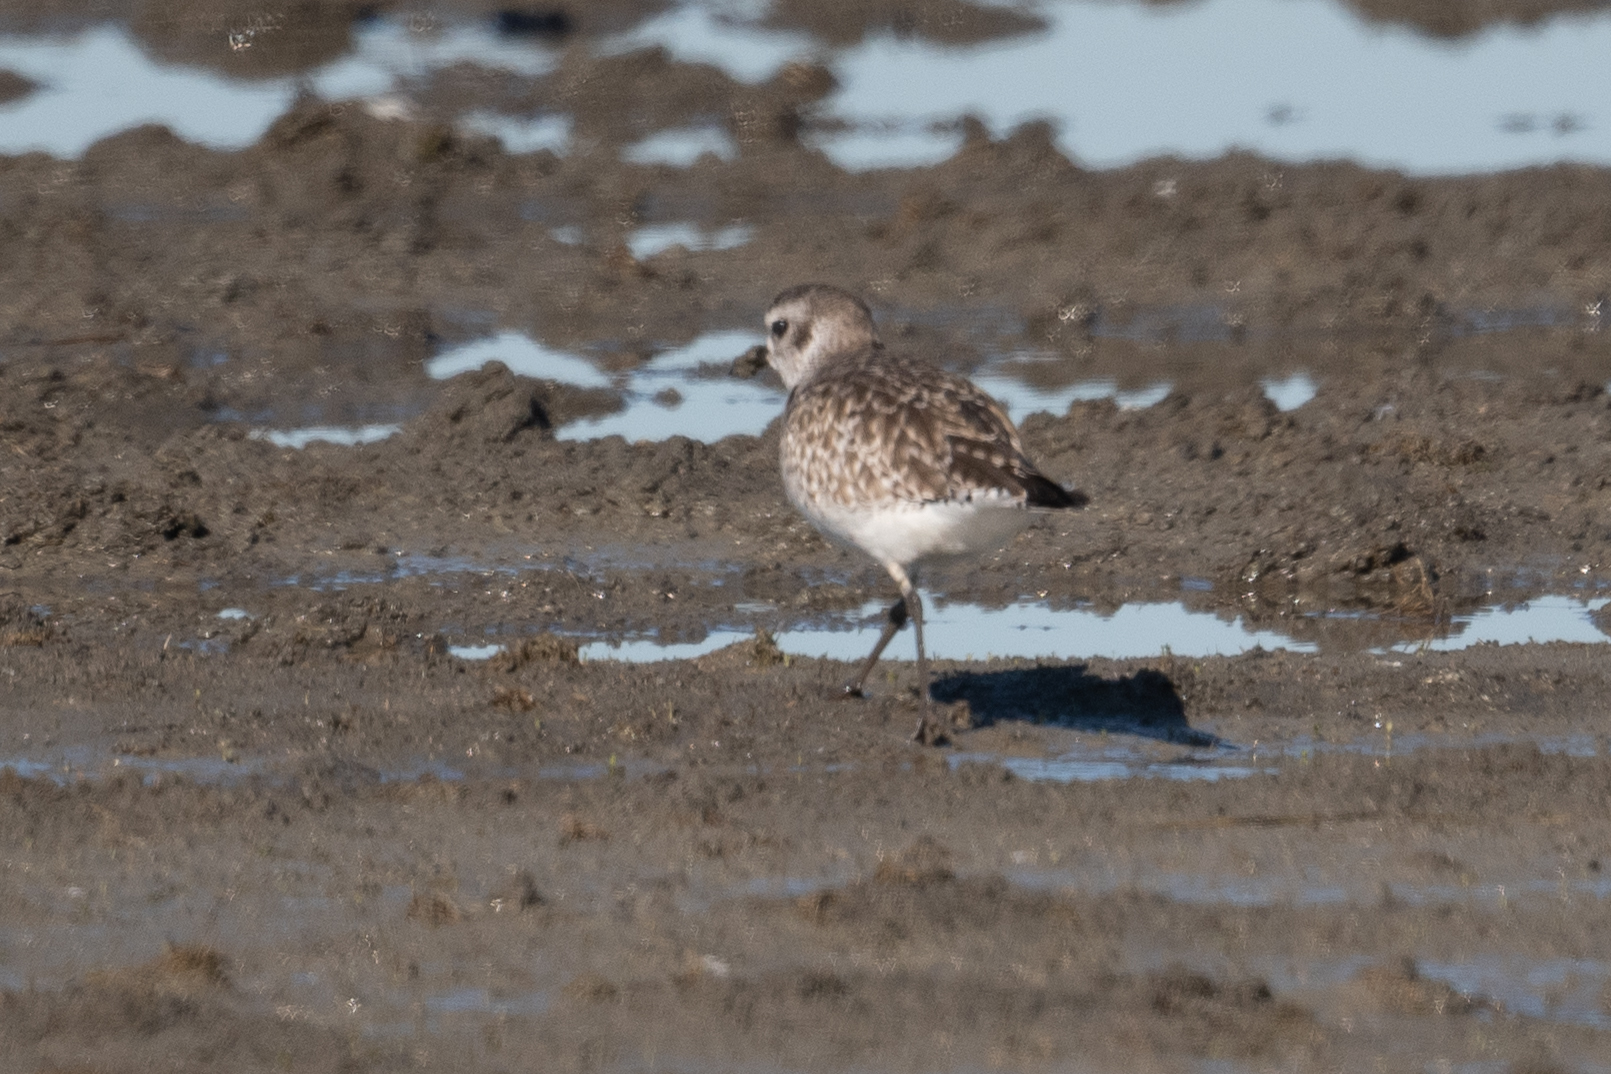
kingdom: Animalia
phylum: Chordata
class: Aves
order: Charadriiformes
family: Charadriidae
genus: Pluvialis
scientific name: Pluvialis squatarola
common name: Grey plover
